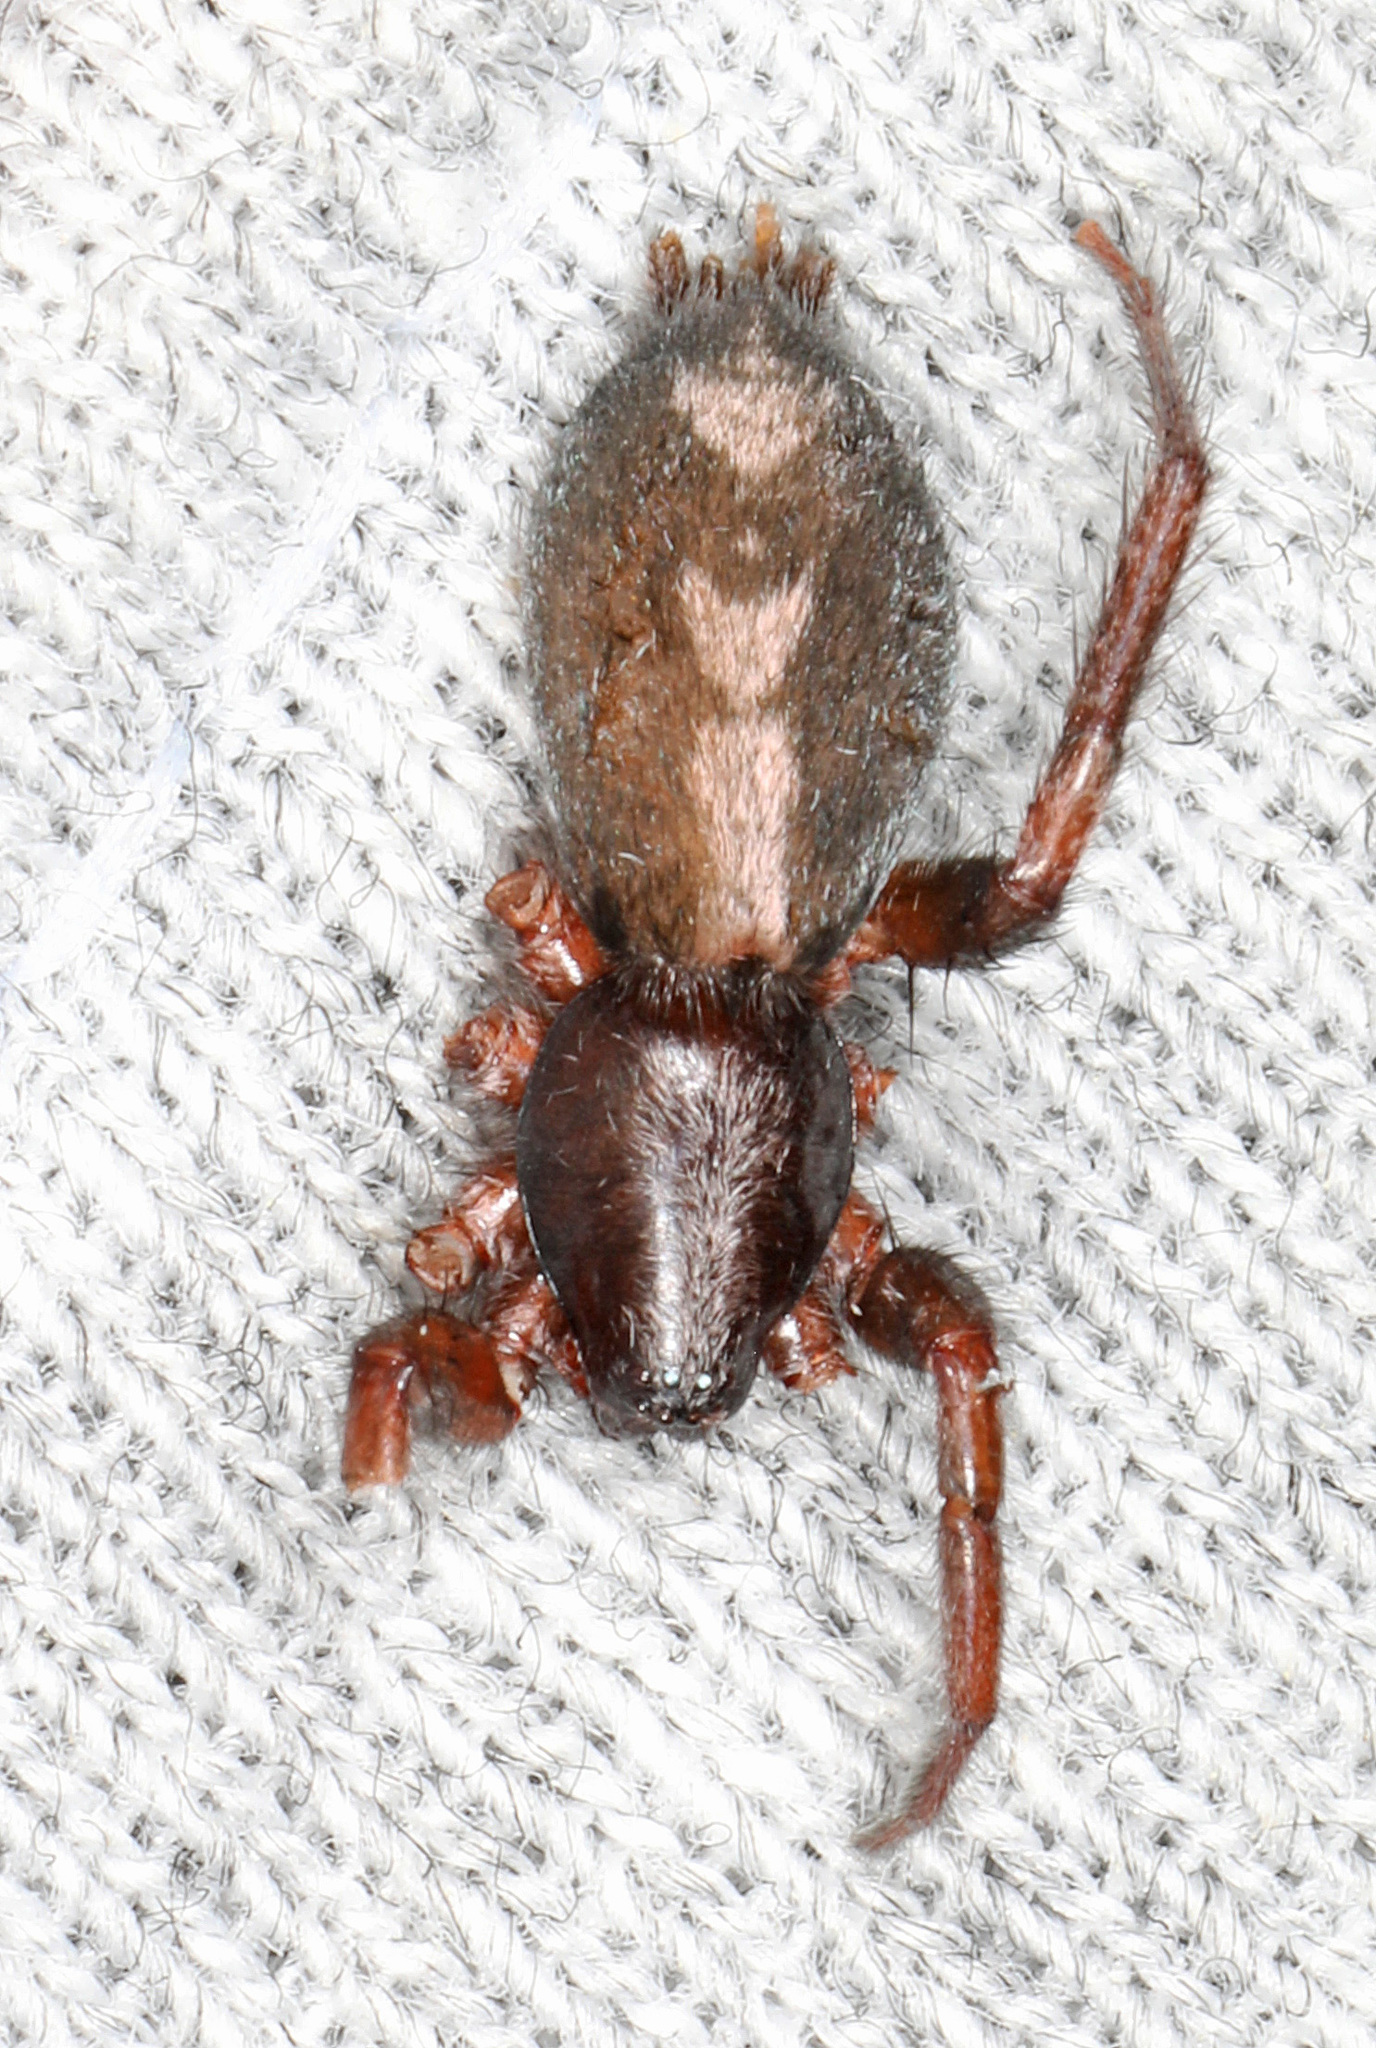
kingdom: Animalia
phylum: Arthropoda
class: Arachnida
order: Araneae
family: Gnaphosidae
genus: Herpyllus
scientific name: Herpyllus ecclesiasticus
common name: Eastern parson spider
